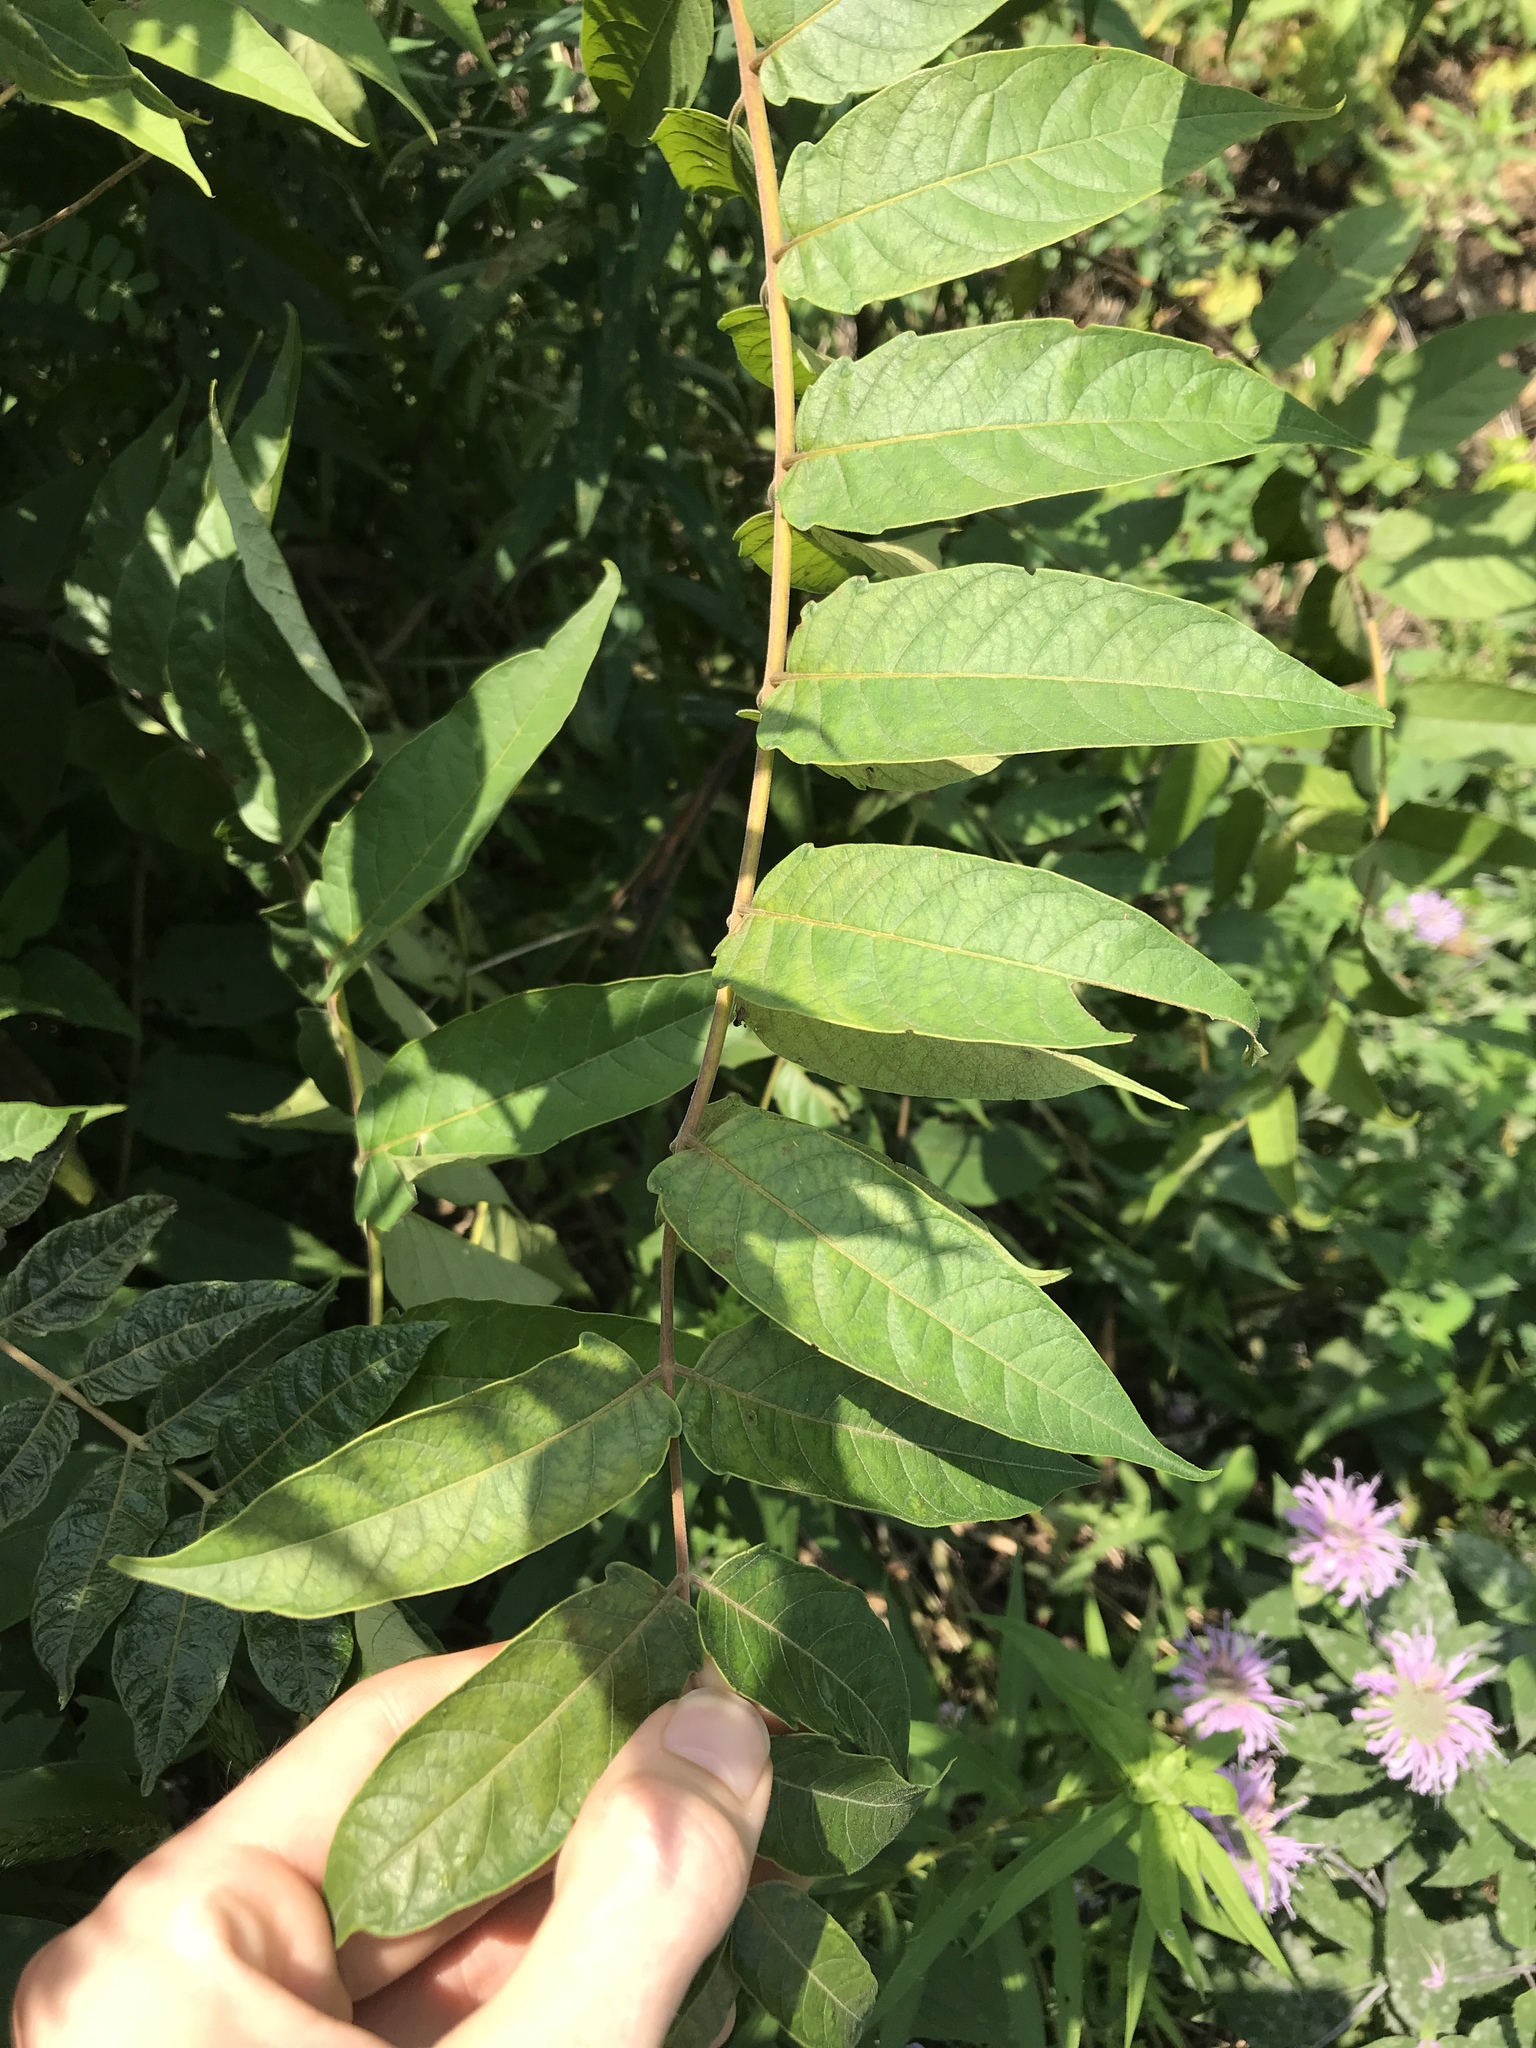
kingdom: Plantae
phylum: Tracheophyta
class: Magnoliopsida
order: Sapindales
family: Simaroubaceae
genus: Ailanthus
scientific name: Ailanthus altissima
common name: Tree-of-heaven
